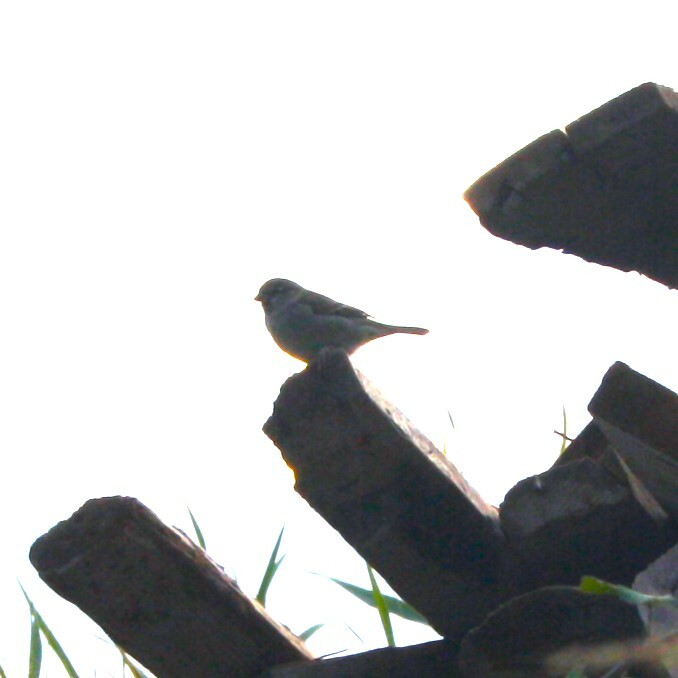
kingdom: Animalia
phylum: Chordata
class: Aves
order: Passeriformes
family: Passeridae
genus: Passer
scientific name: Passer domesticus
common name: House sparrow
